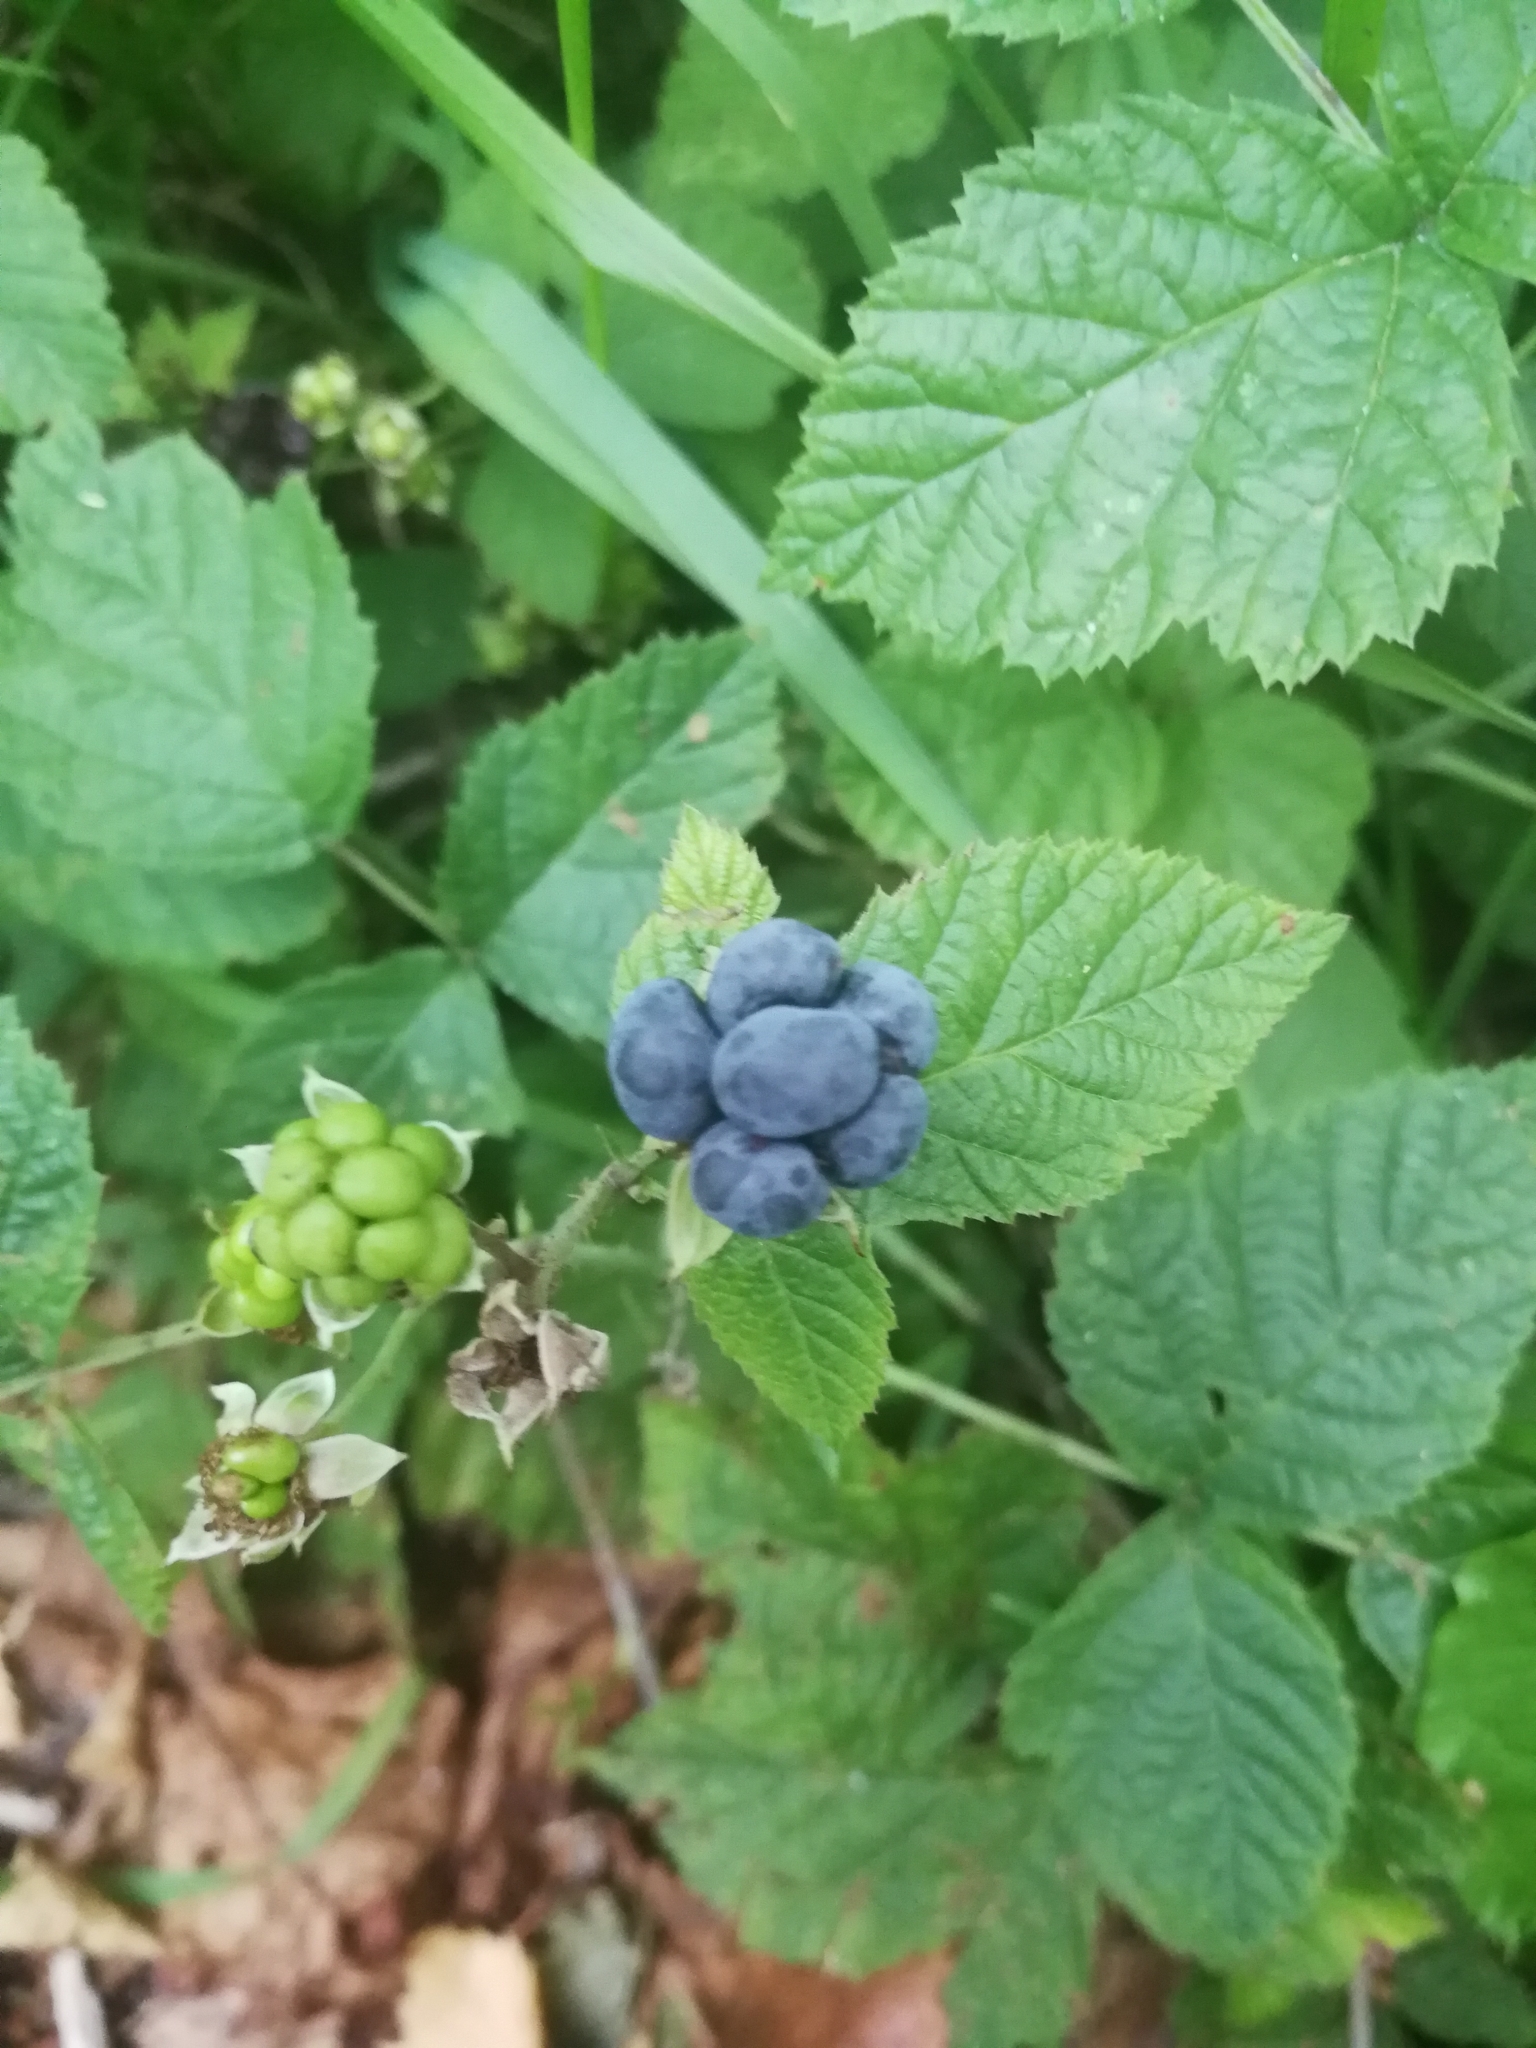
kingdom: Plantae
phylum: Tracheophyta
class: Magnoliopsida
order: Rosales
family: Rosaceae
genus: Rubus
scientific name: Rubus caesius
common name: Dewberry
